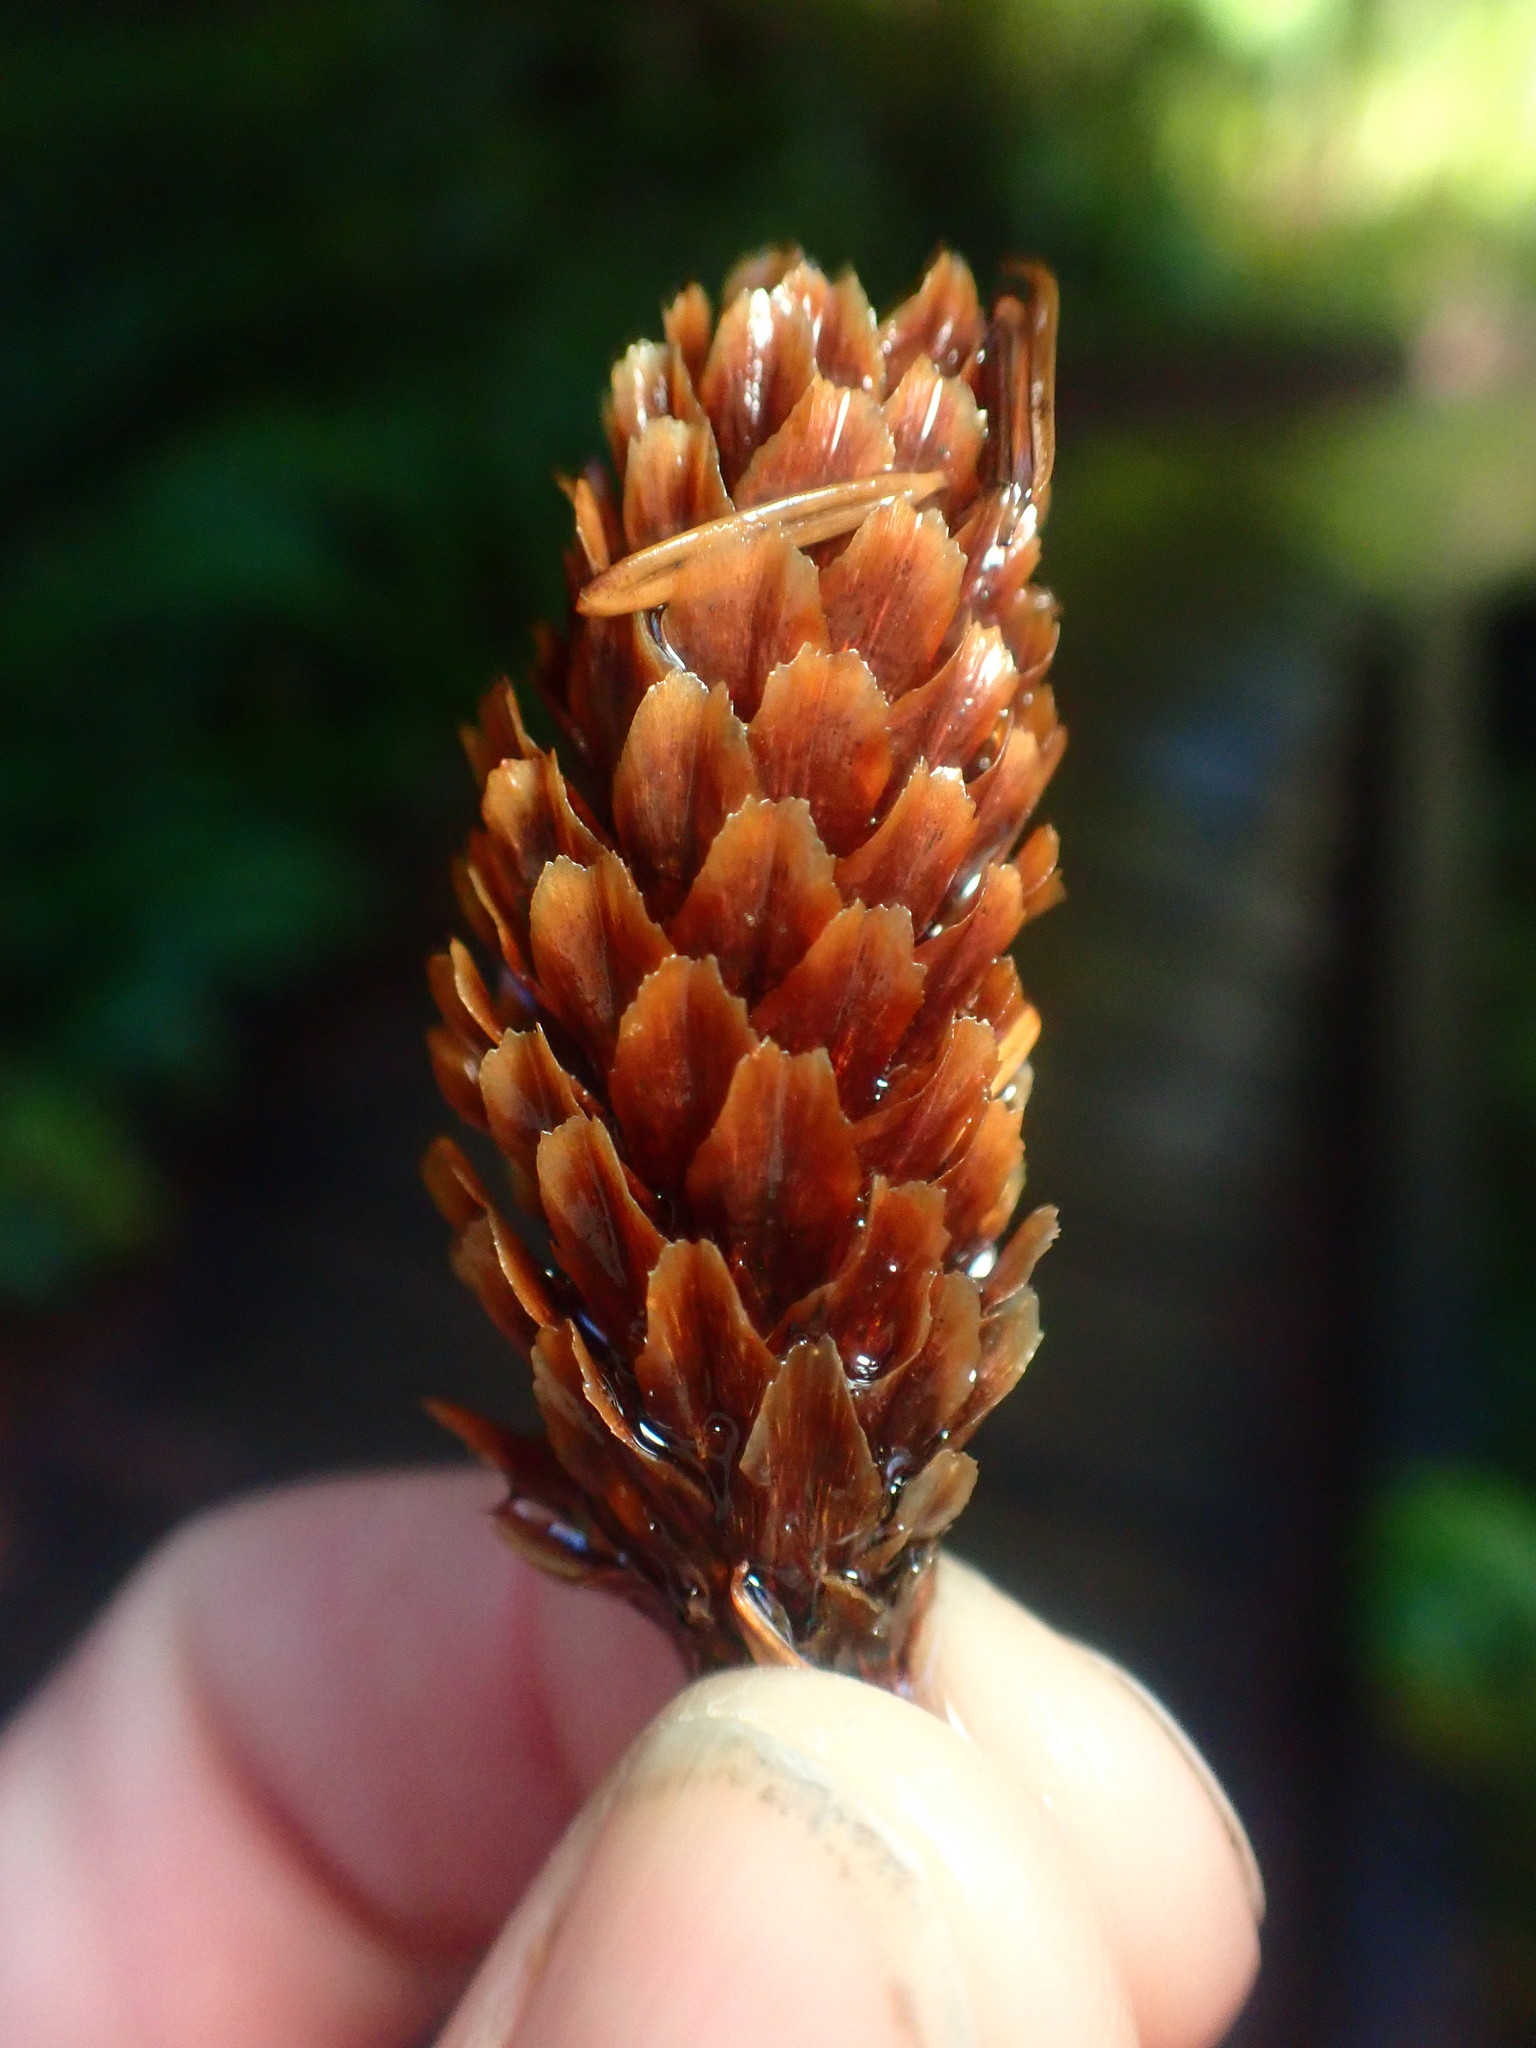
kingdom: Plantae
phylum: Tracheophyta
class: Pinopsida
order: Pinales
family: Pinaceae
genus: Picea
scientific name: Picea sitchensis
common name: Sitka spruce
